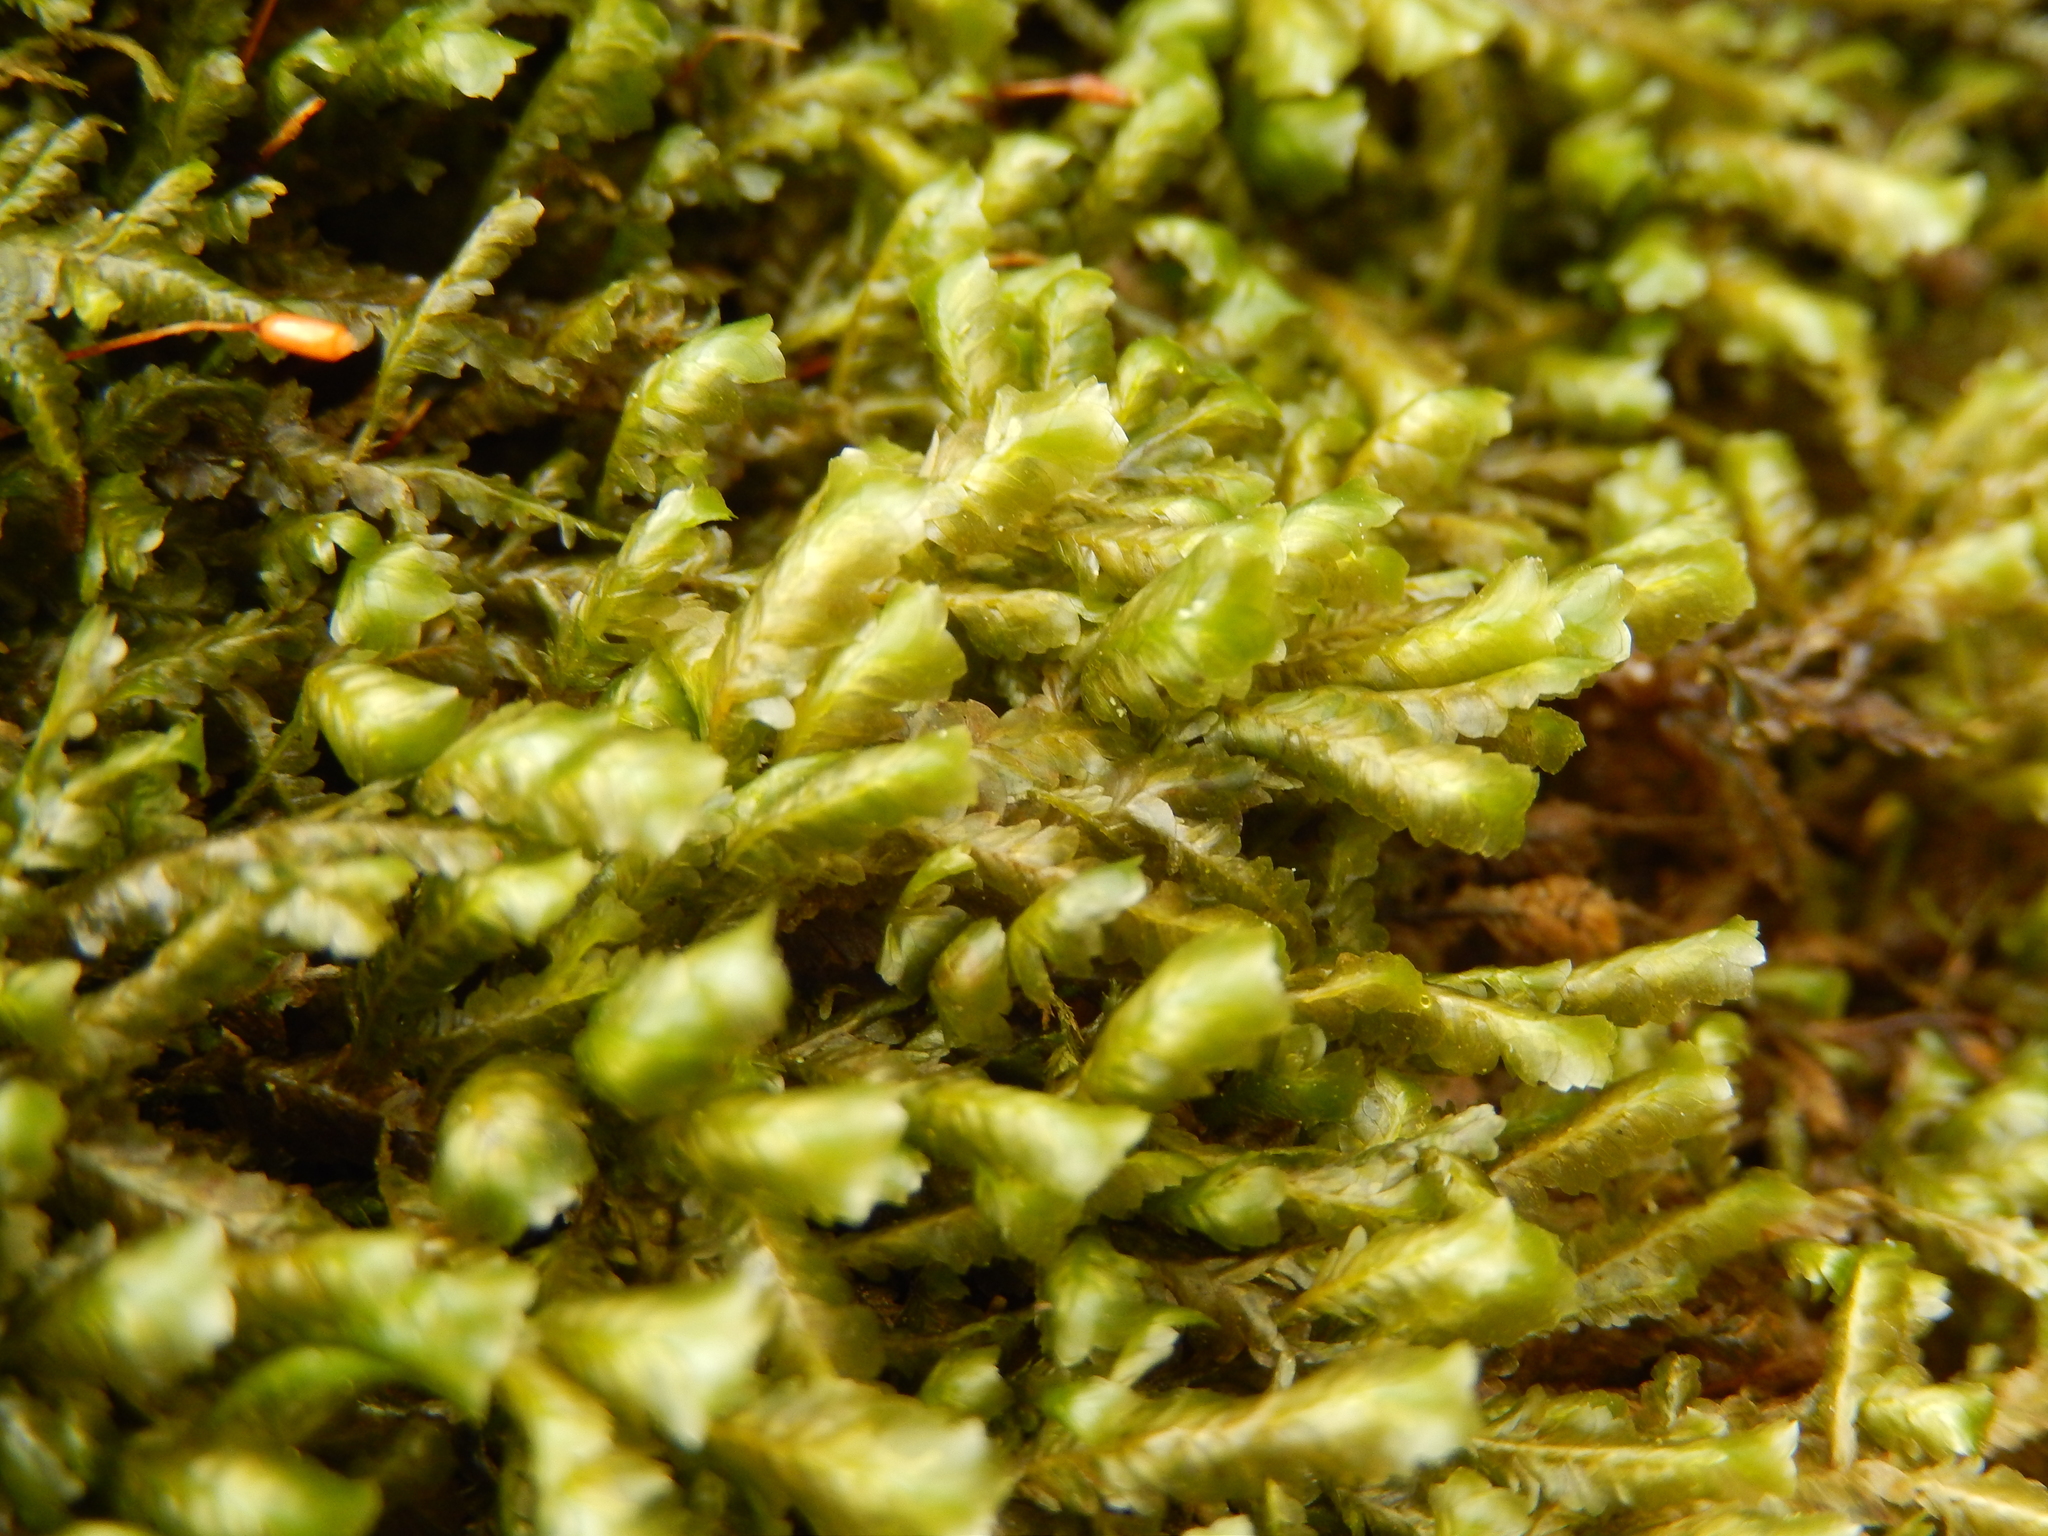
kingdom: Plantae
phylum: Bryophyta
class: Bryopsida
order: Hypnales
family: Neckeraceae
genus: Homalia
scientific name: Homalia trichomanoides
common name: Lime homalia moss
